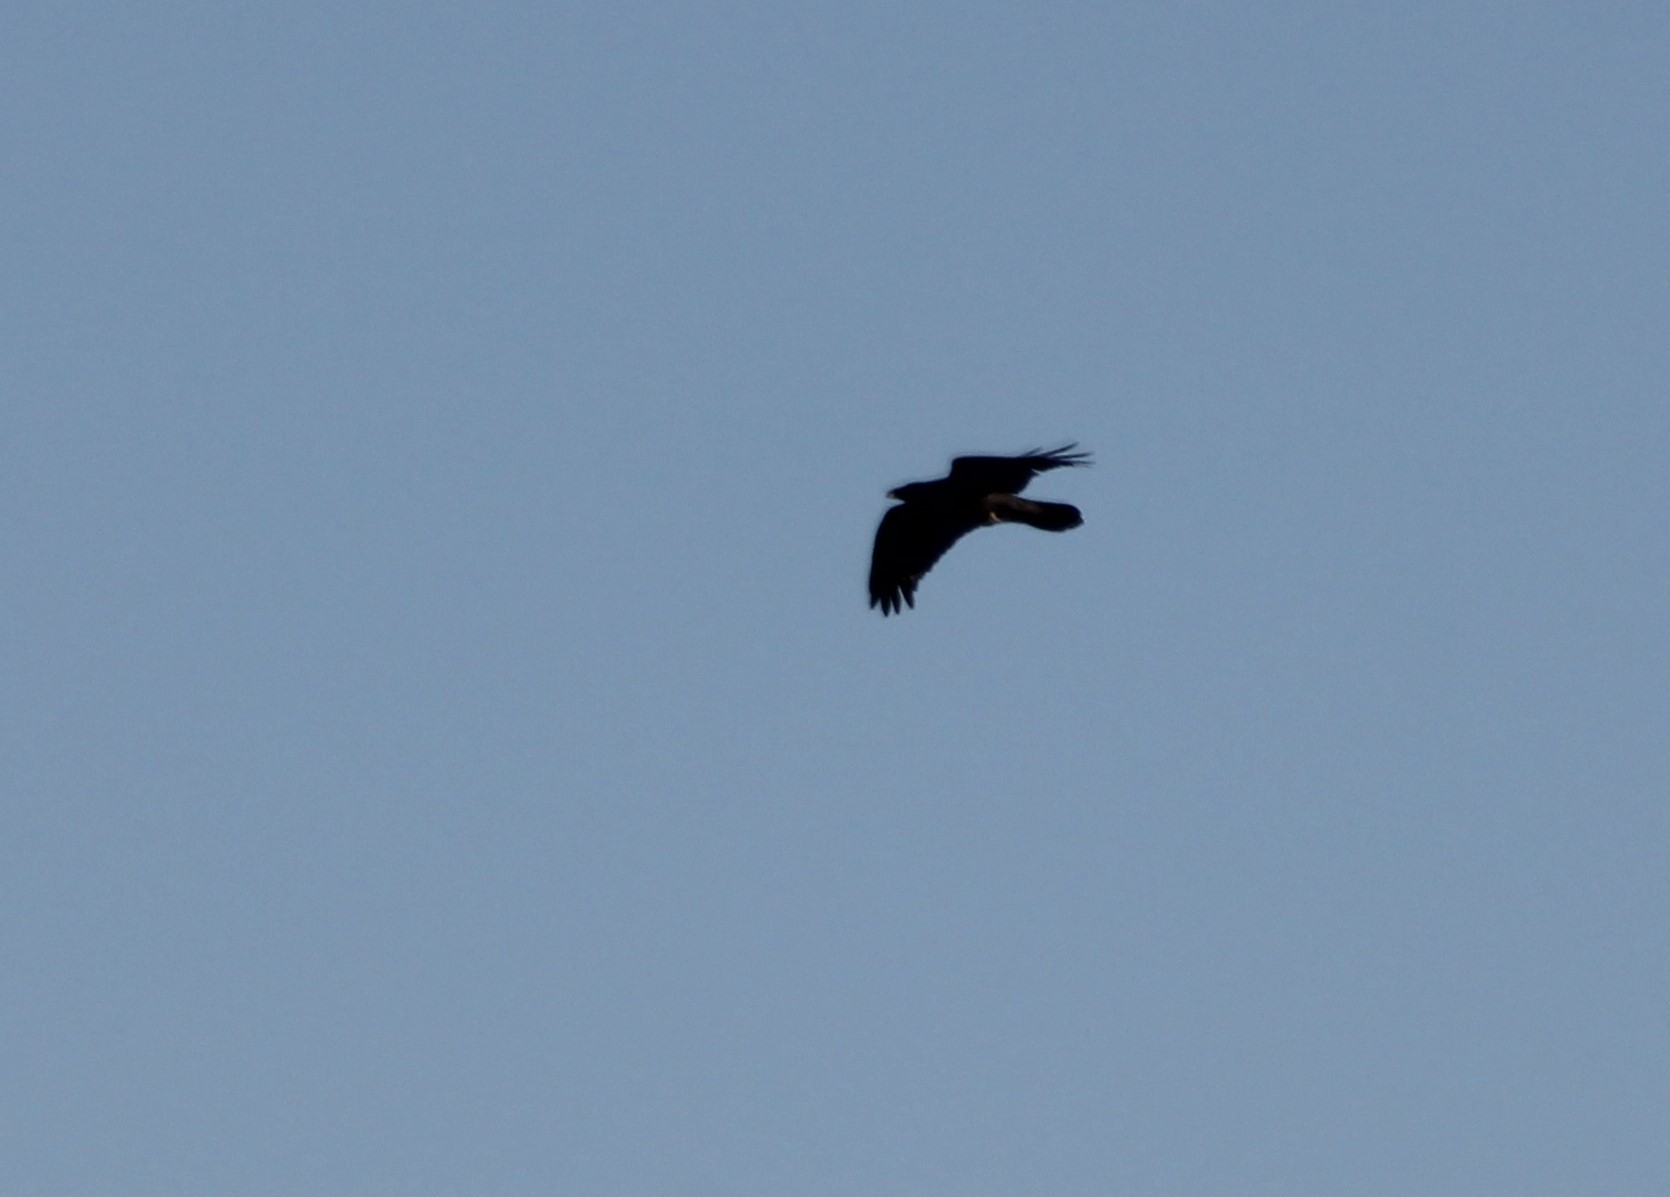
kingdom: Animalia
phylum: Chordata
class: Aves
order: Passeriformes
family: Corvidae
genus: Corvus
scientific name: Corvus corax
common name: Common raven
